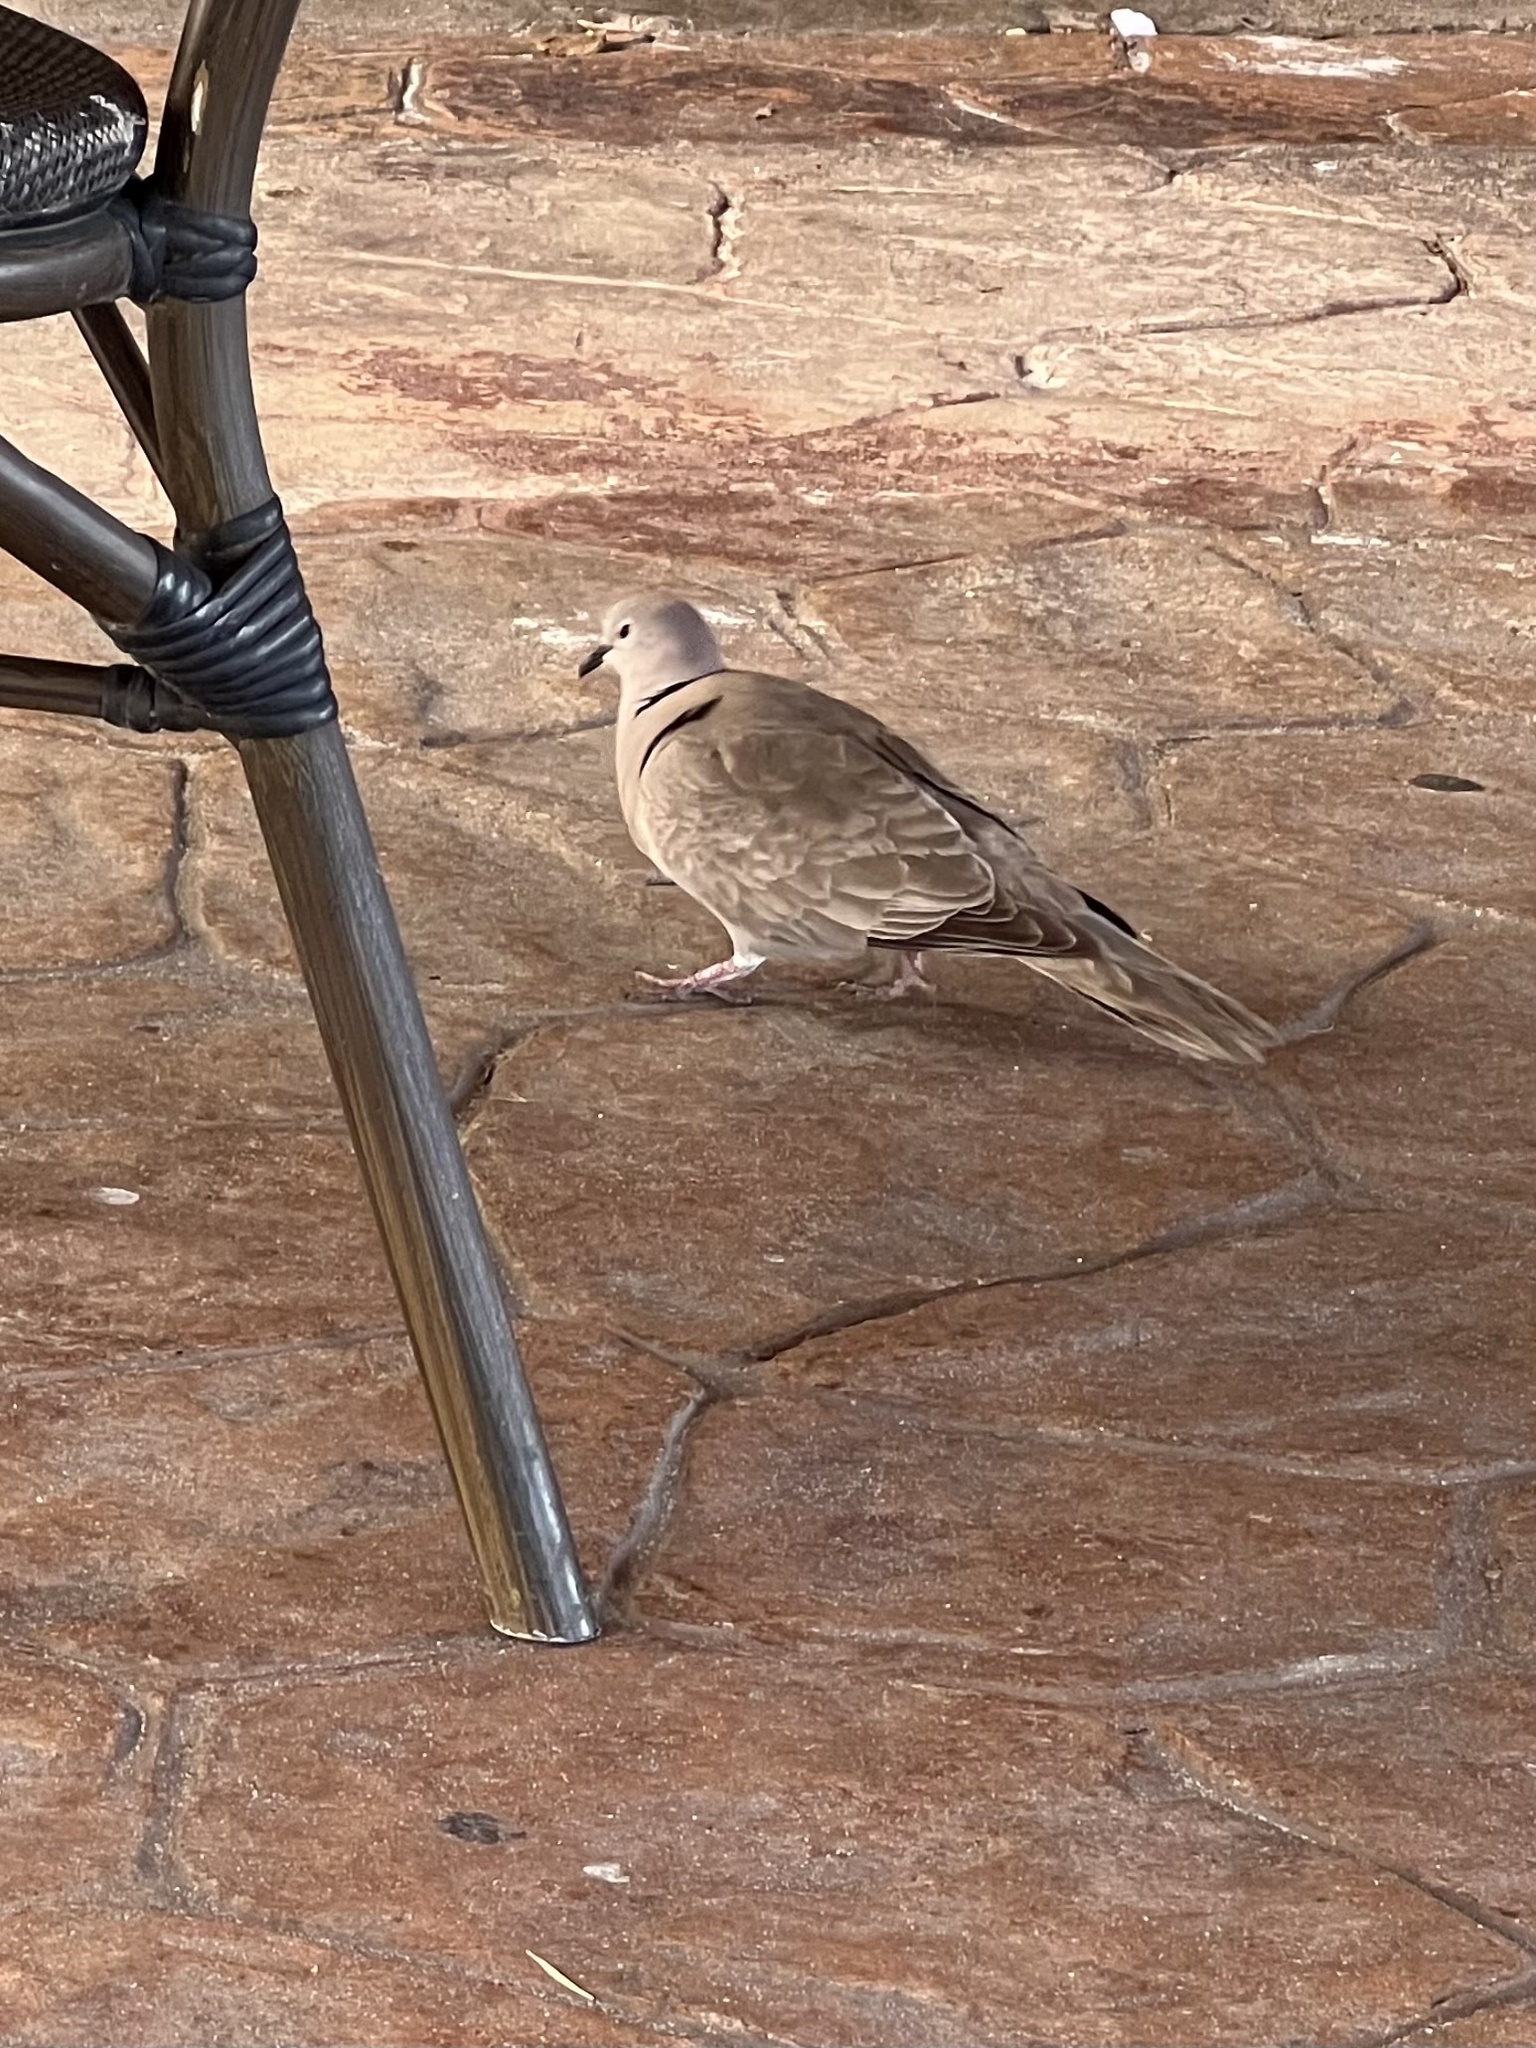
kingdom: Animalia
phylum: Chordata
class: Aves
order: Columbiformes
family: Columbidae
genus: Streptopelia
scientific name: Streptopelia decaocto
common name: Eurasian collared dove
